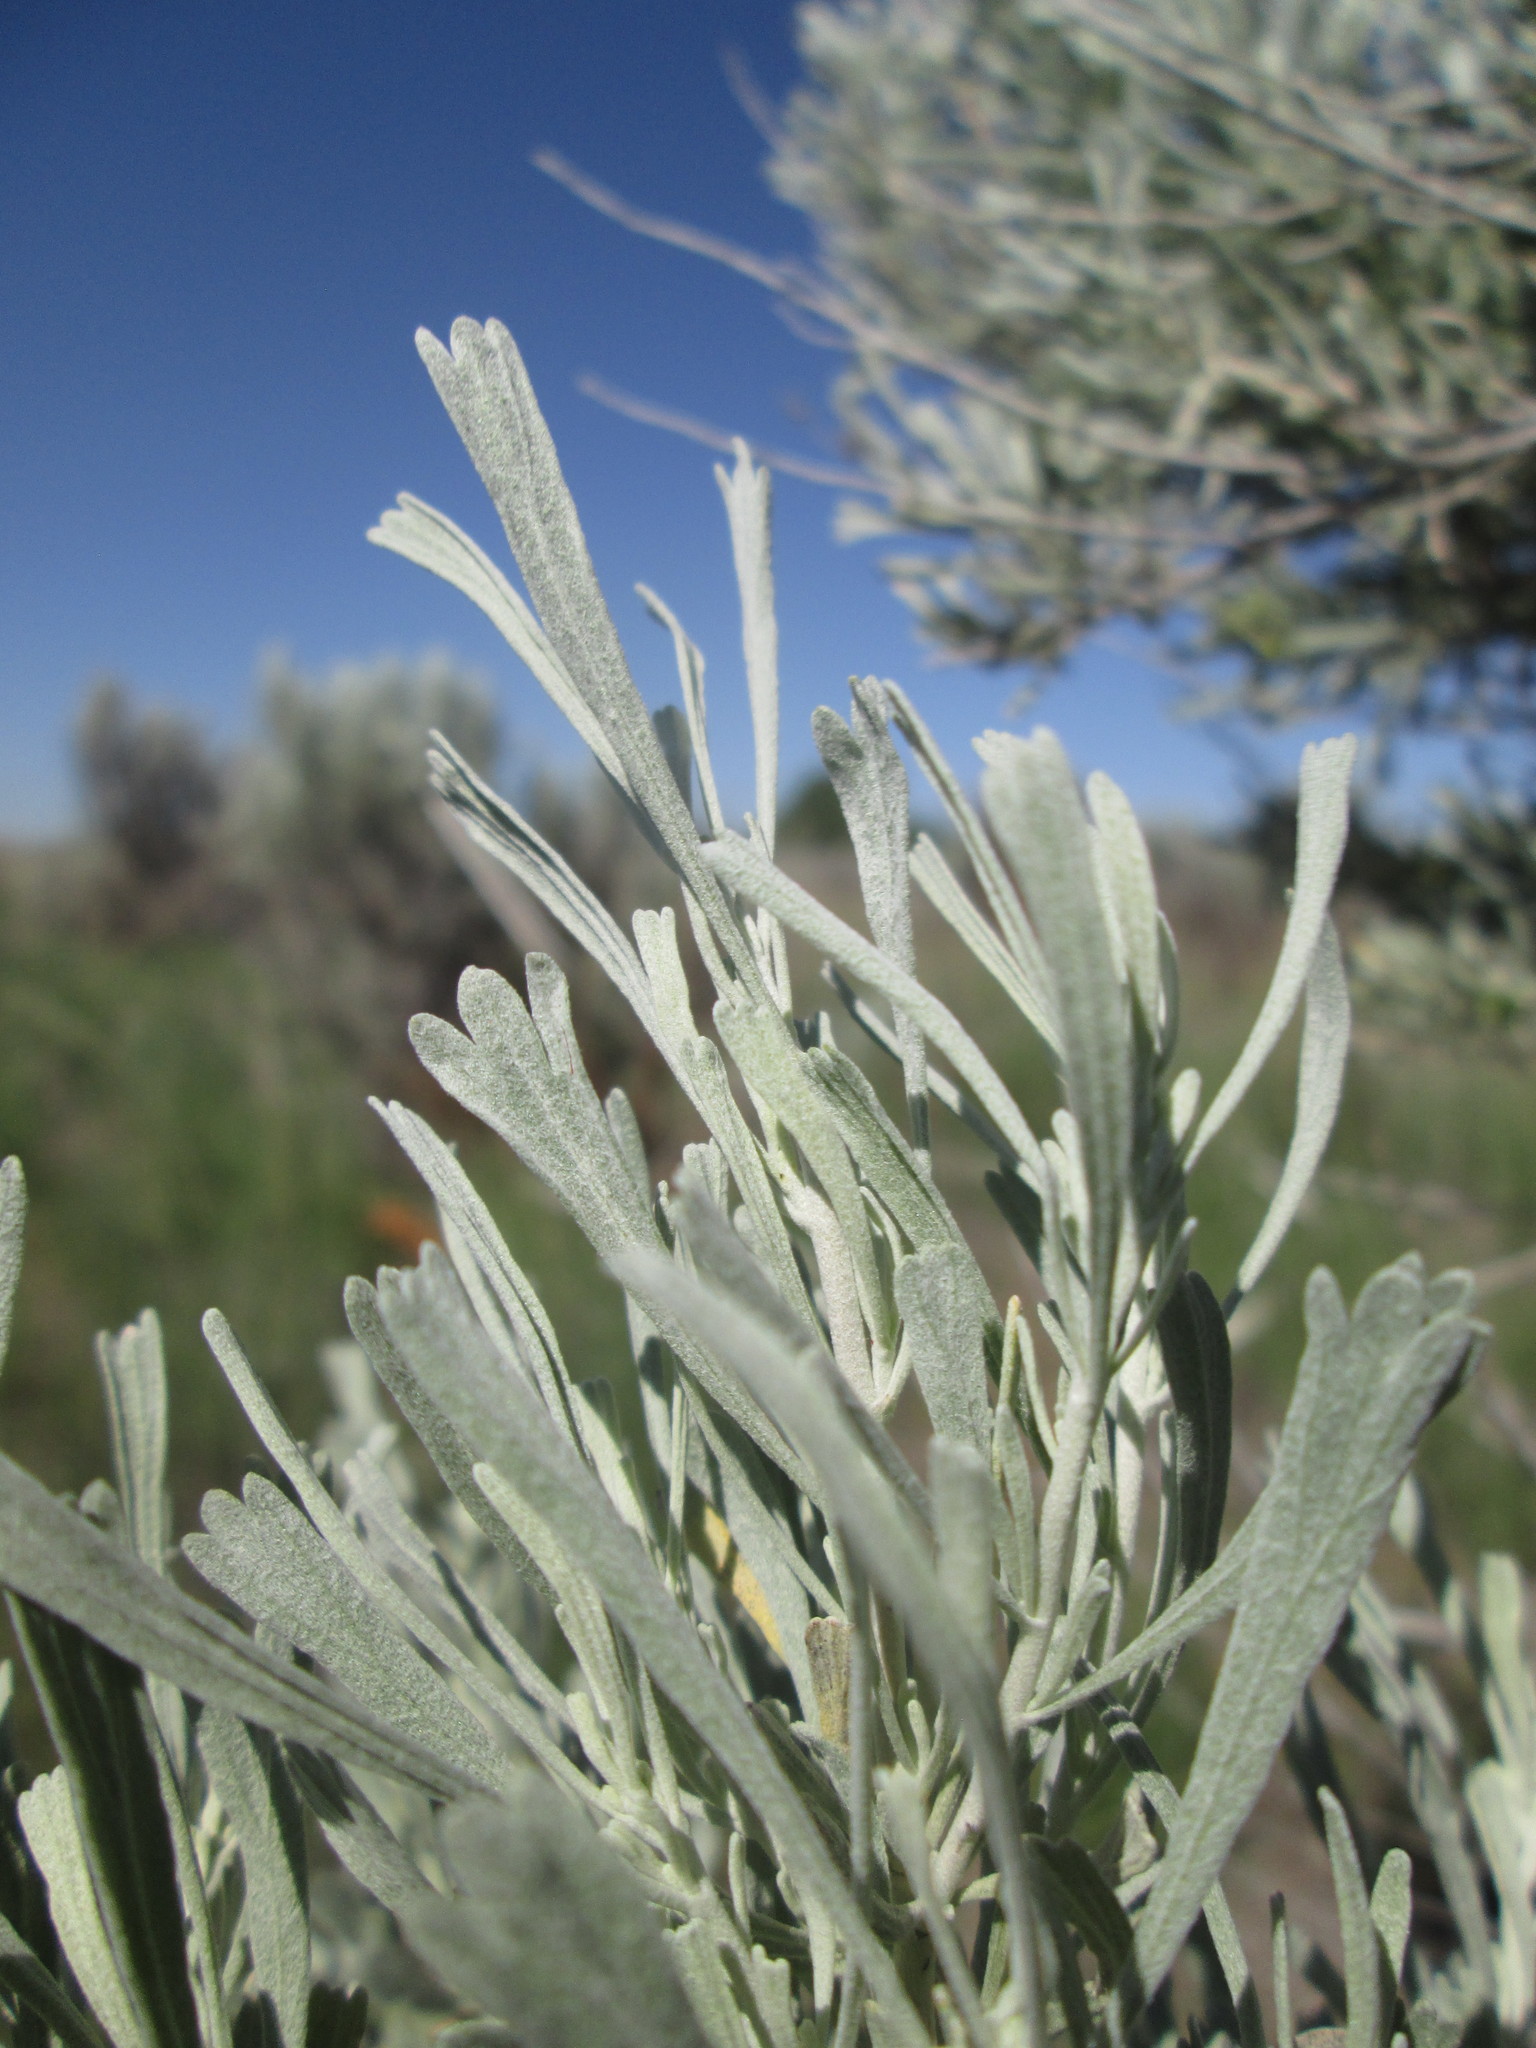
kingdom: Plantae
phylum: Tracheophyta
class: Magnoliopsida
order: Asterales
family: Asteraceae
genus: Artemisia
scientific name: Artemisia tridentata
